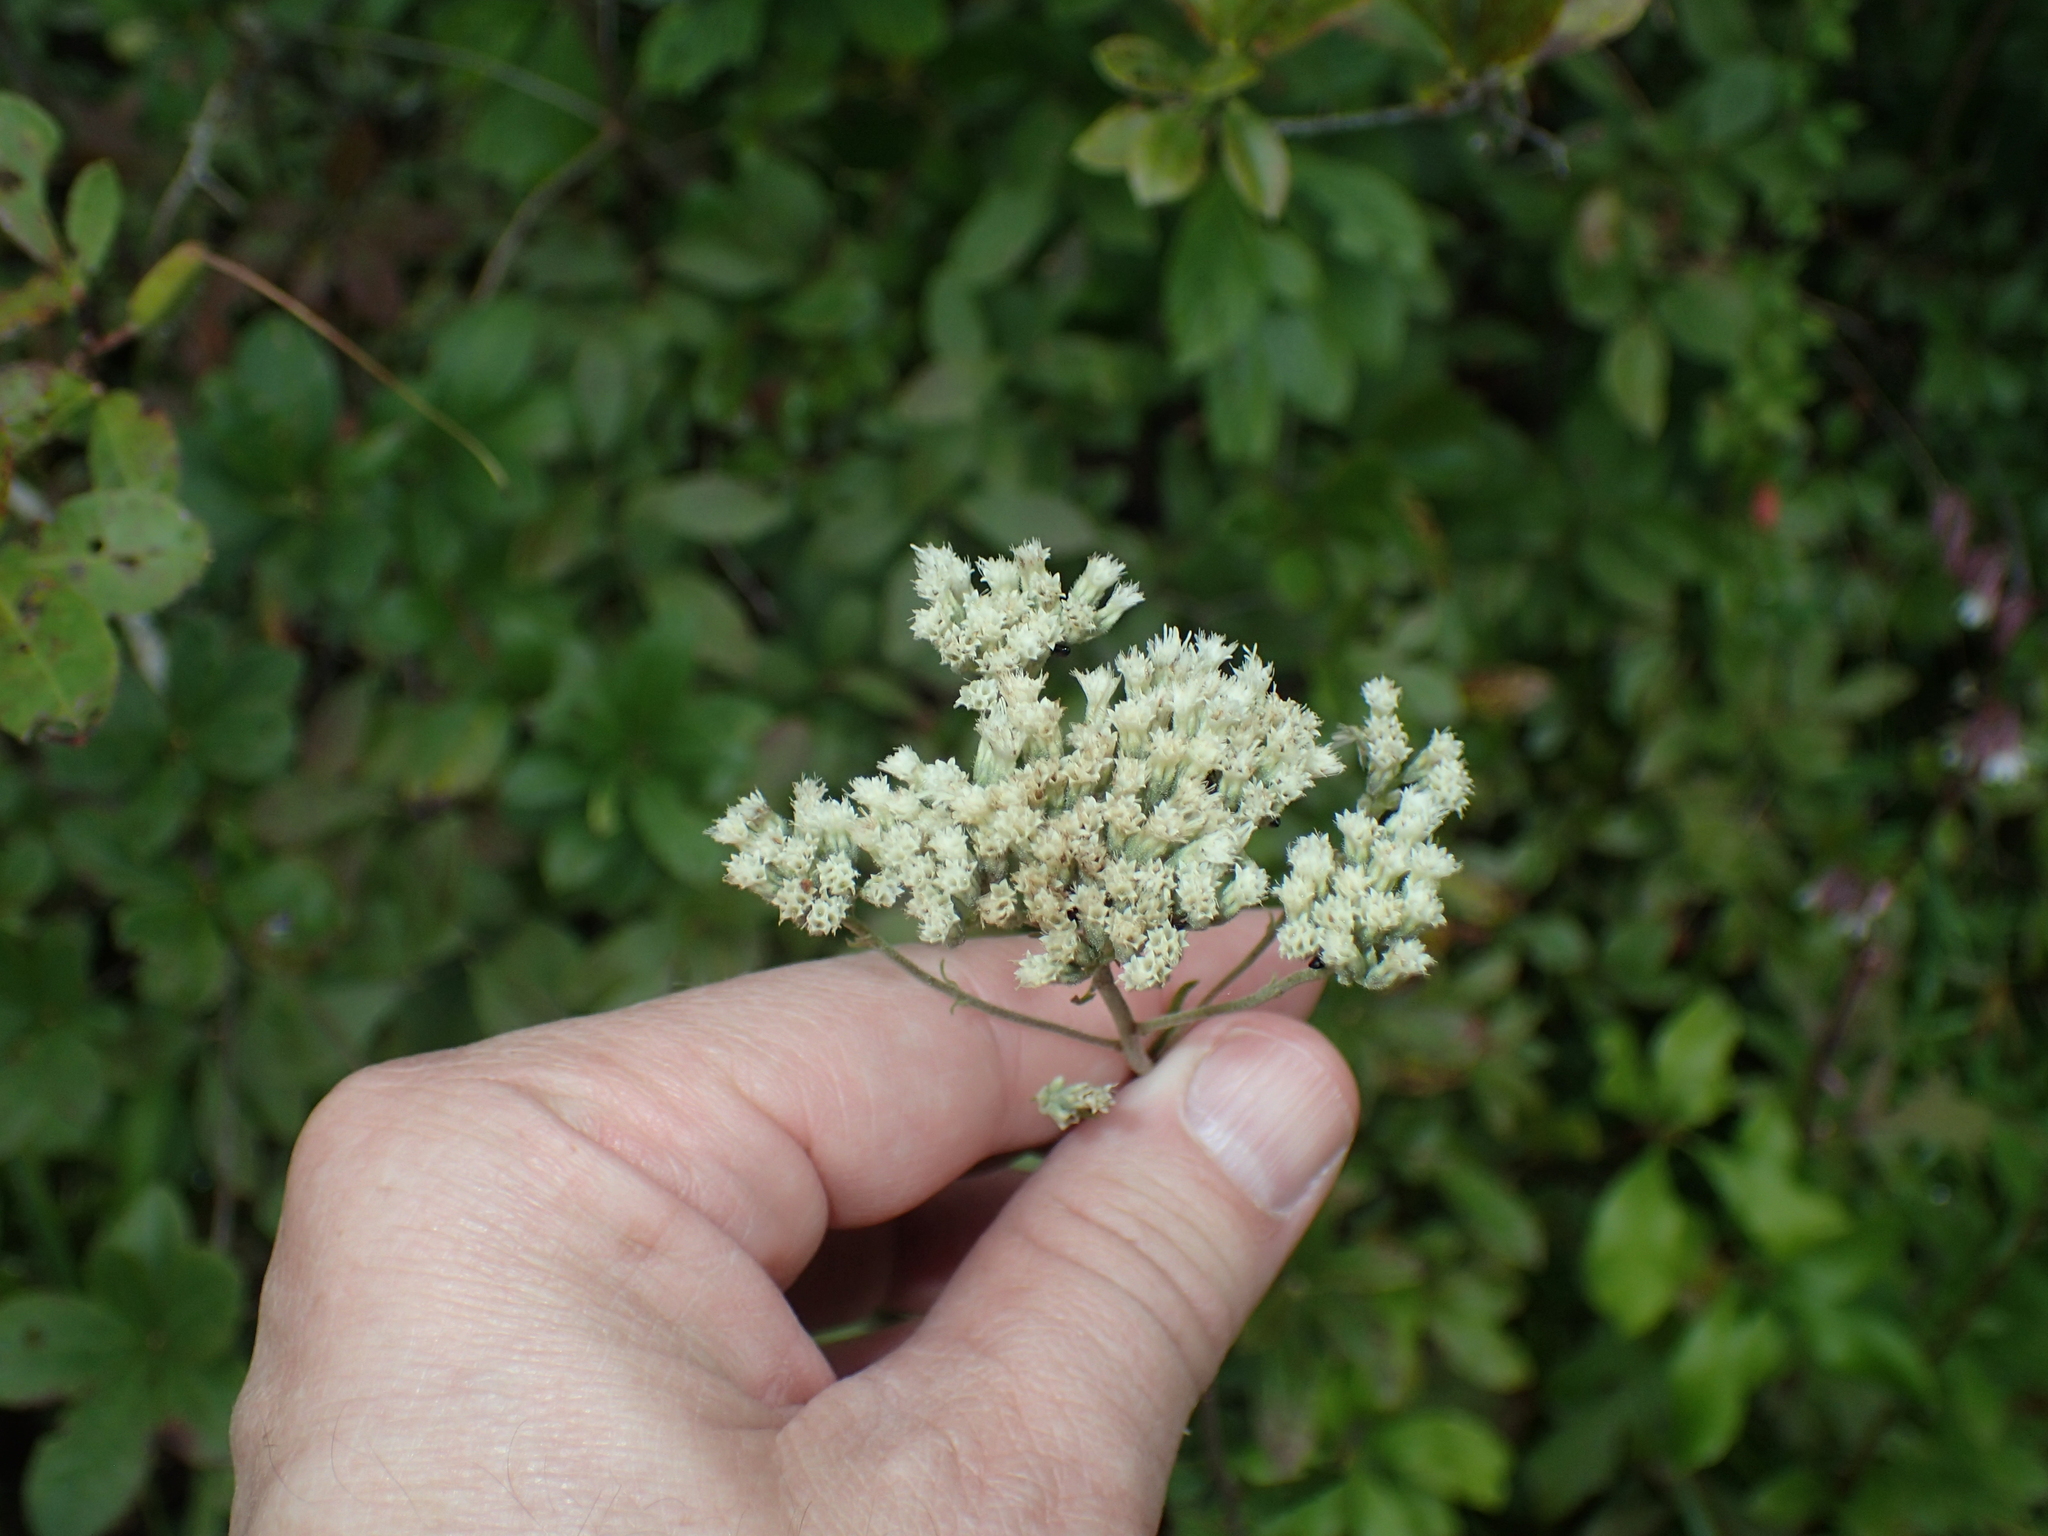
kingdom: Plantae
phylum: Tracheophyta
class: Magnoliopsida
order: Asterales
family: Asteraceae
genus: Eupatorium
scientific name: Eupatorium pilosum
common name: Rough boneset
